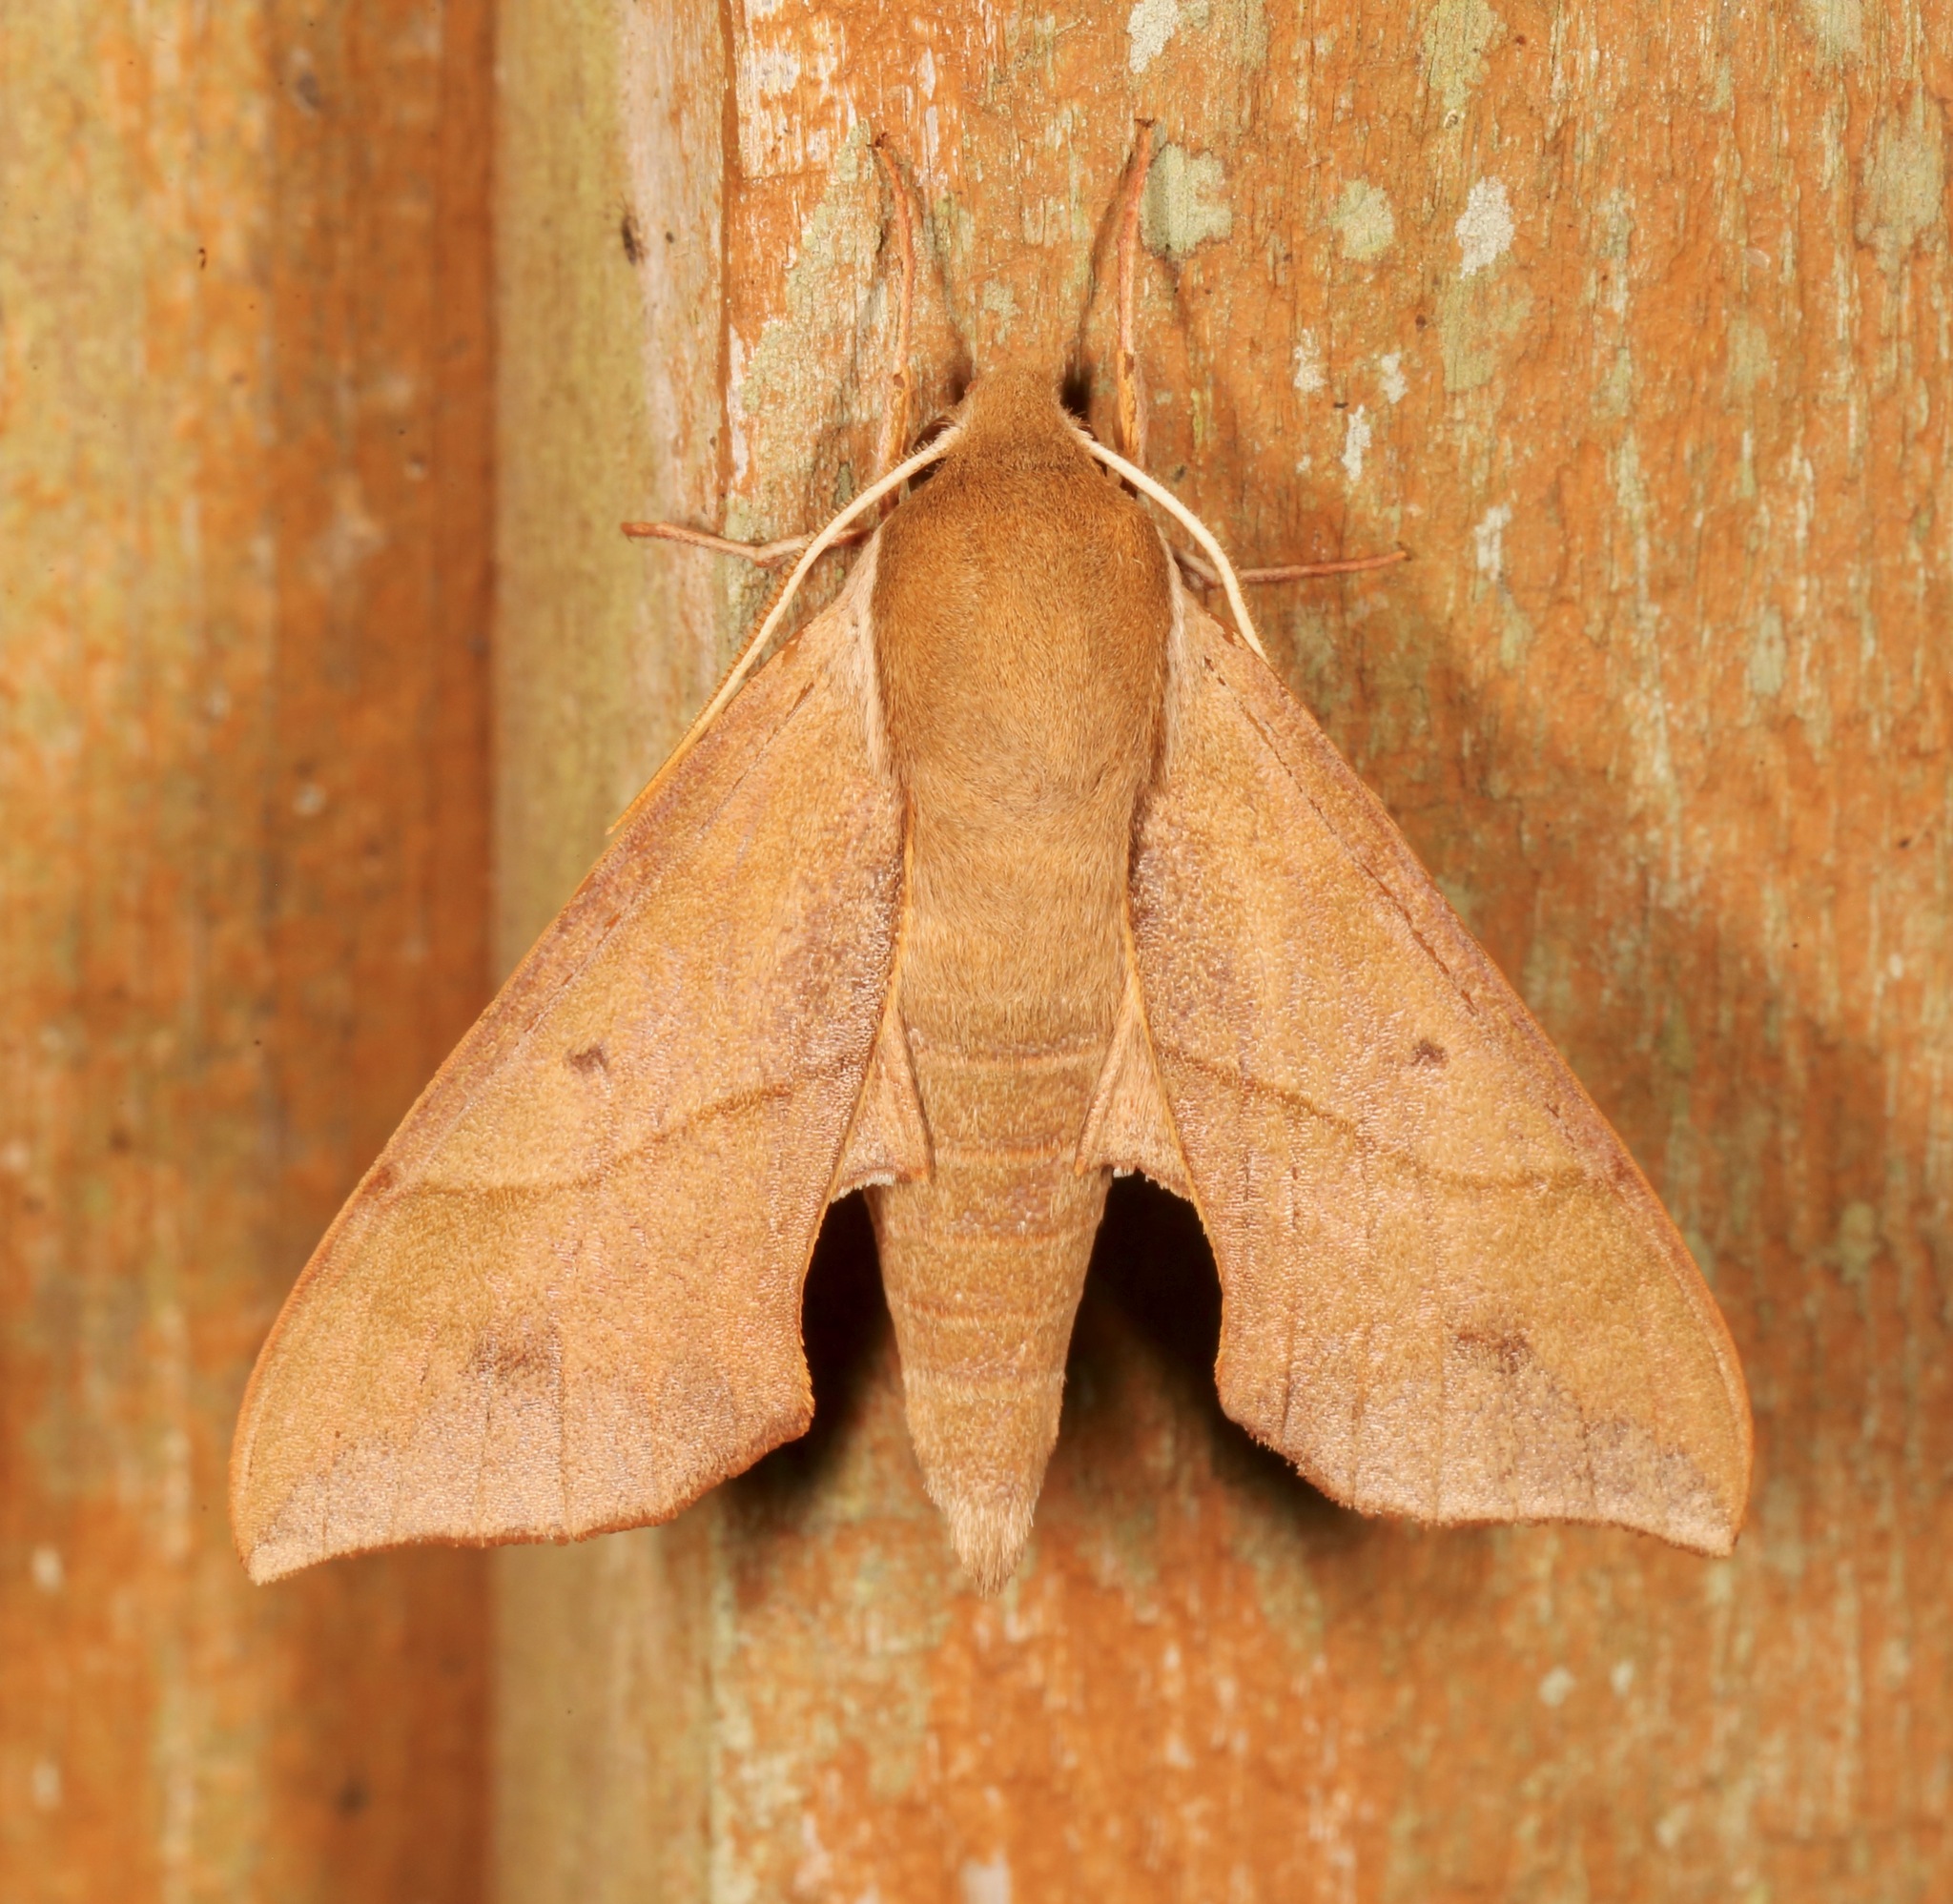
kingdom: Animalia
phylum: Arthropoda
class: Insecta
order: Lepidoptera
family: Sphingidae
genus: Darapsa
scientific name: Darapsa myron
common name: Hog sphinx
